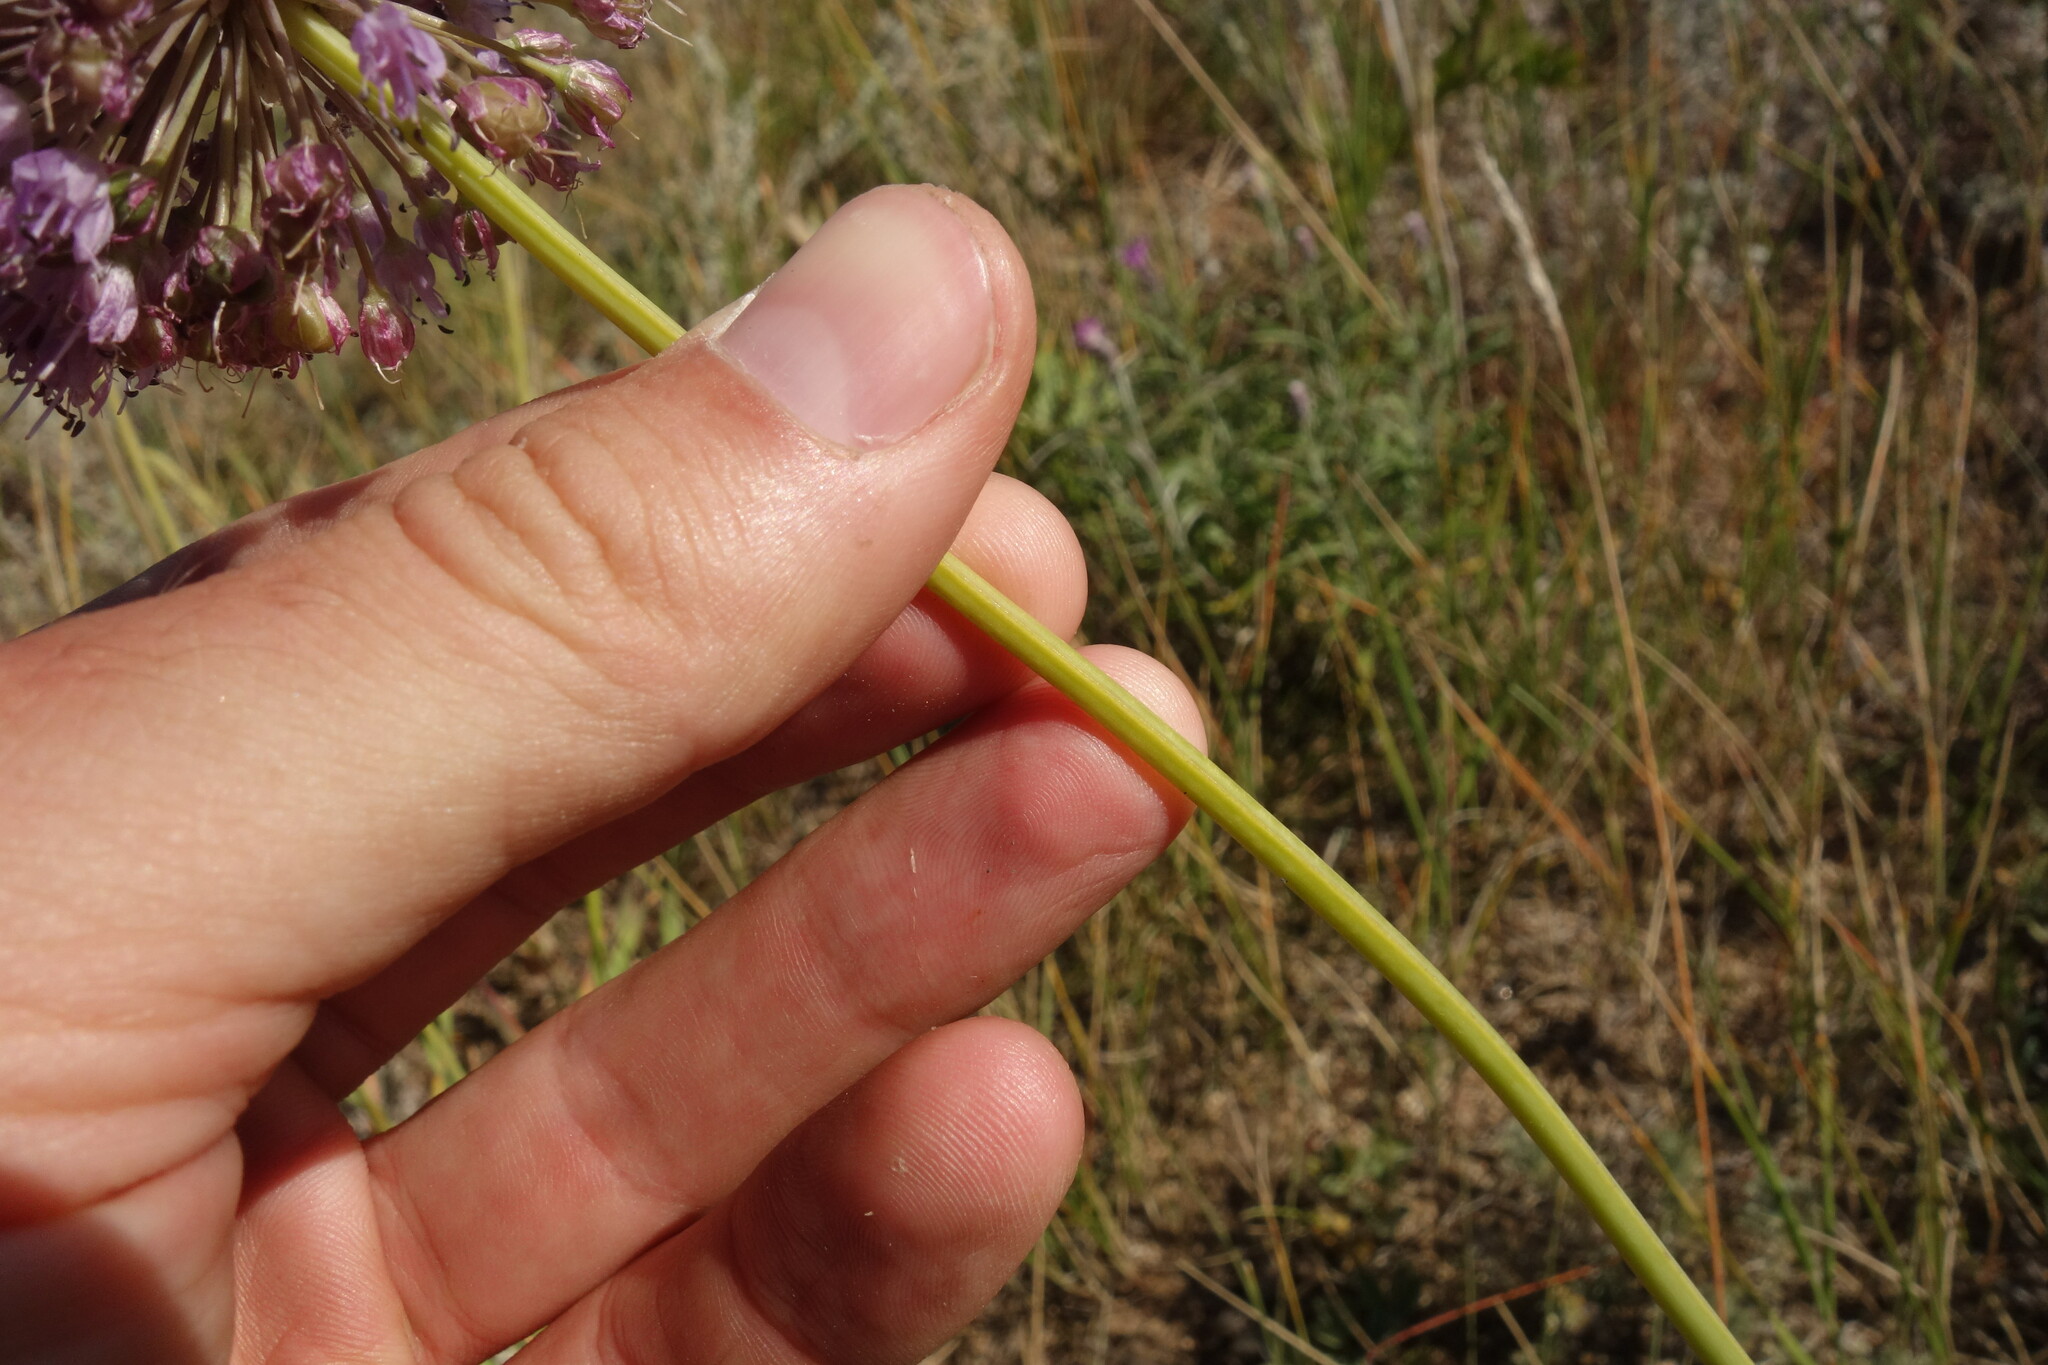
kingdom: Plantae
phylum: Tracheophyta
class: Liliopsida
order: Asparagales
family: Amaryllidaceae
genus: Allium
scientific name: Allium senescens
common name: German garlic
